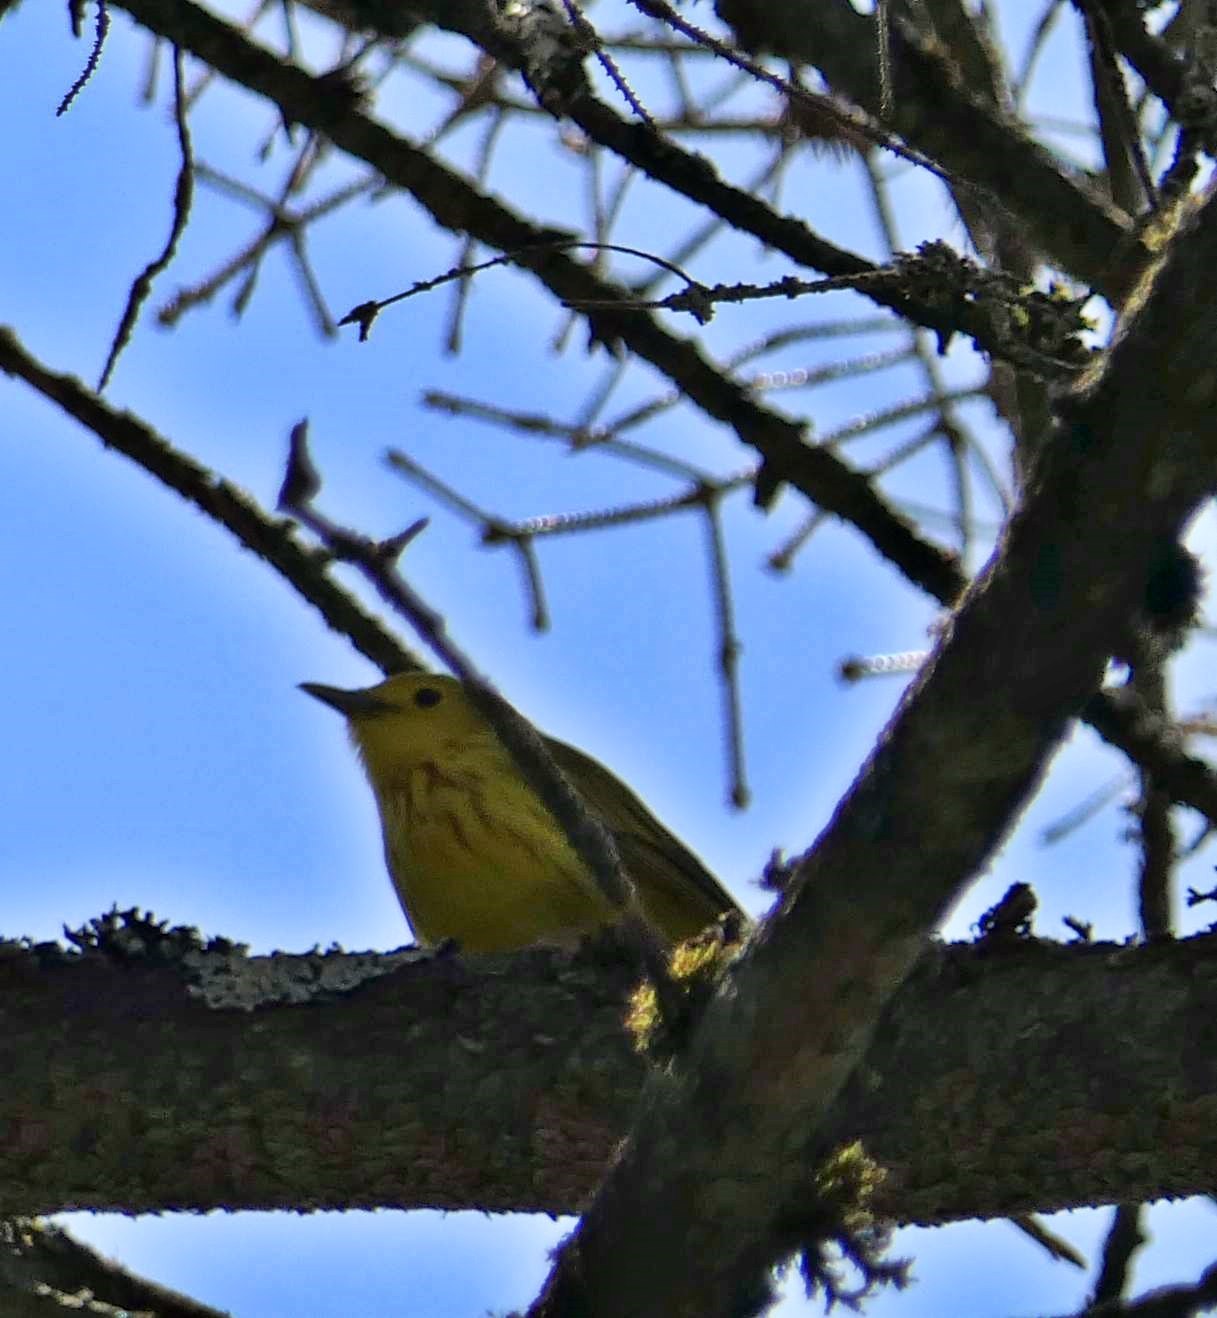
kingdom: Animalia
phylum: Chordata
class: Aves
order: Passeriformes
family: Parulidae
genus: Setophaga
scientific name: Setophaga petechia
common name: Yellow warbler
